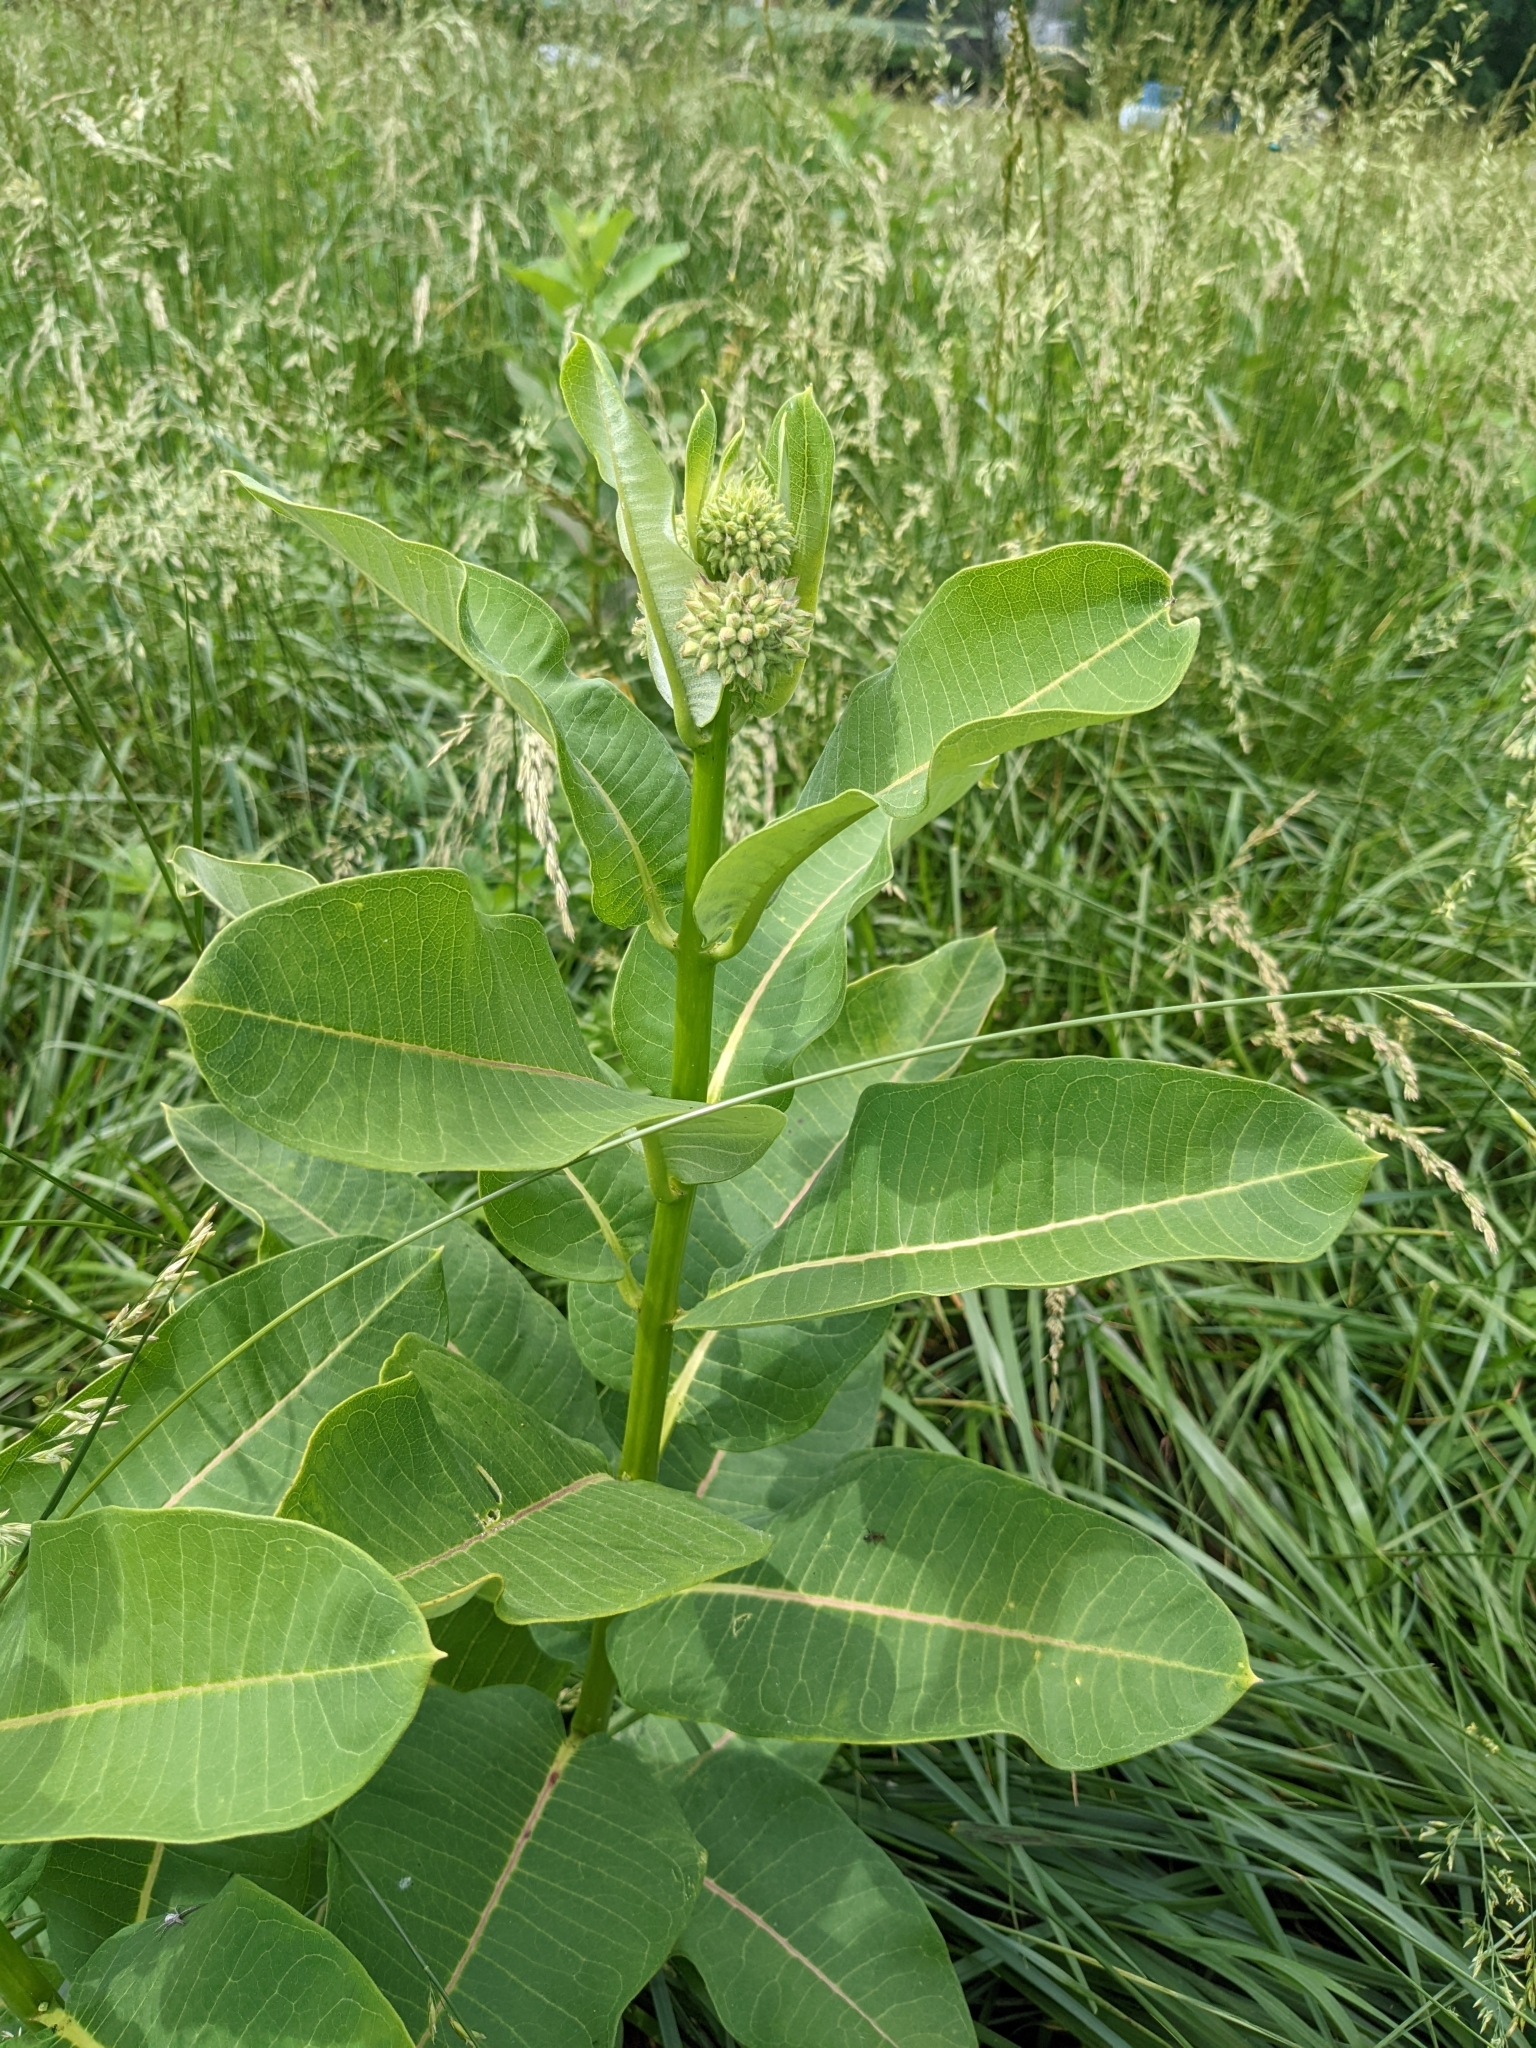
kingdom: Plantae
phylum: Tracheophyta
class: Magnoliopsida
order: Gentianales
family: Apocynaceae
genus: Asclepias
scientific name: Asclepias syriaca
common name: Common milkweed
